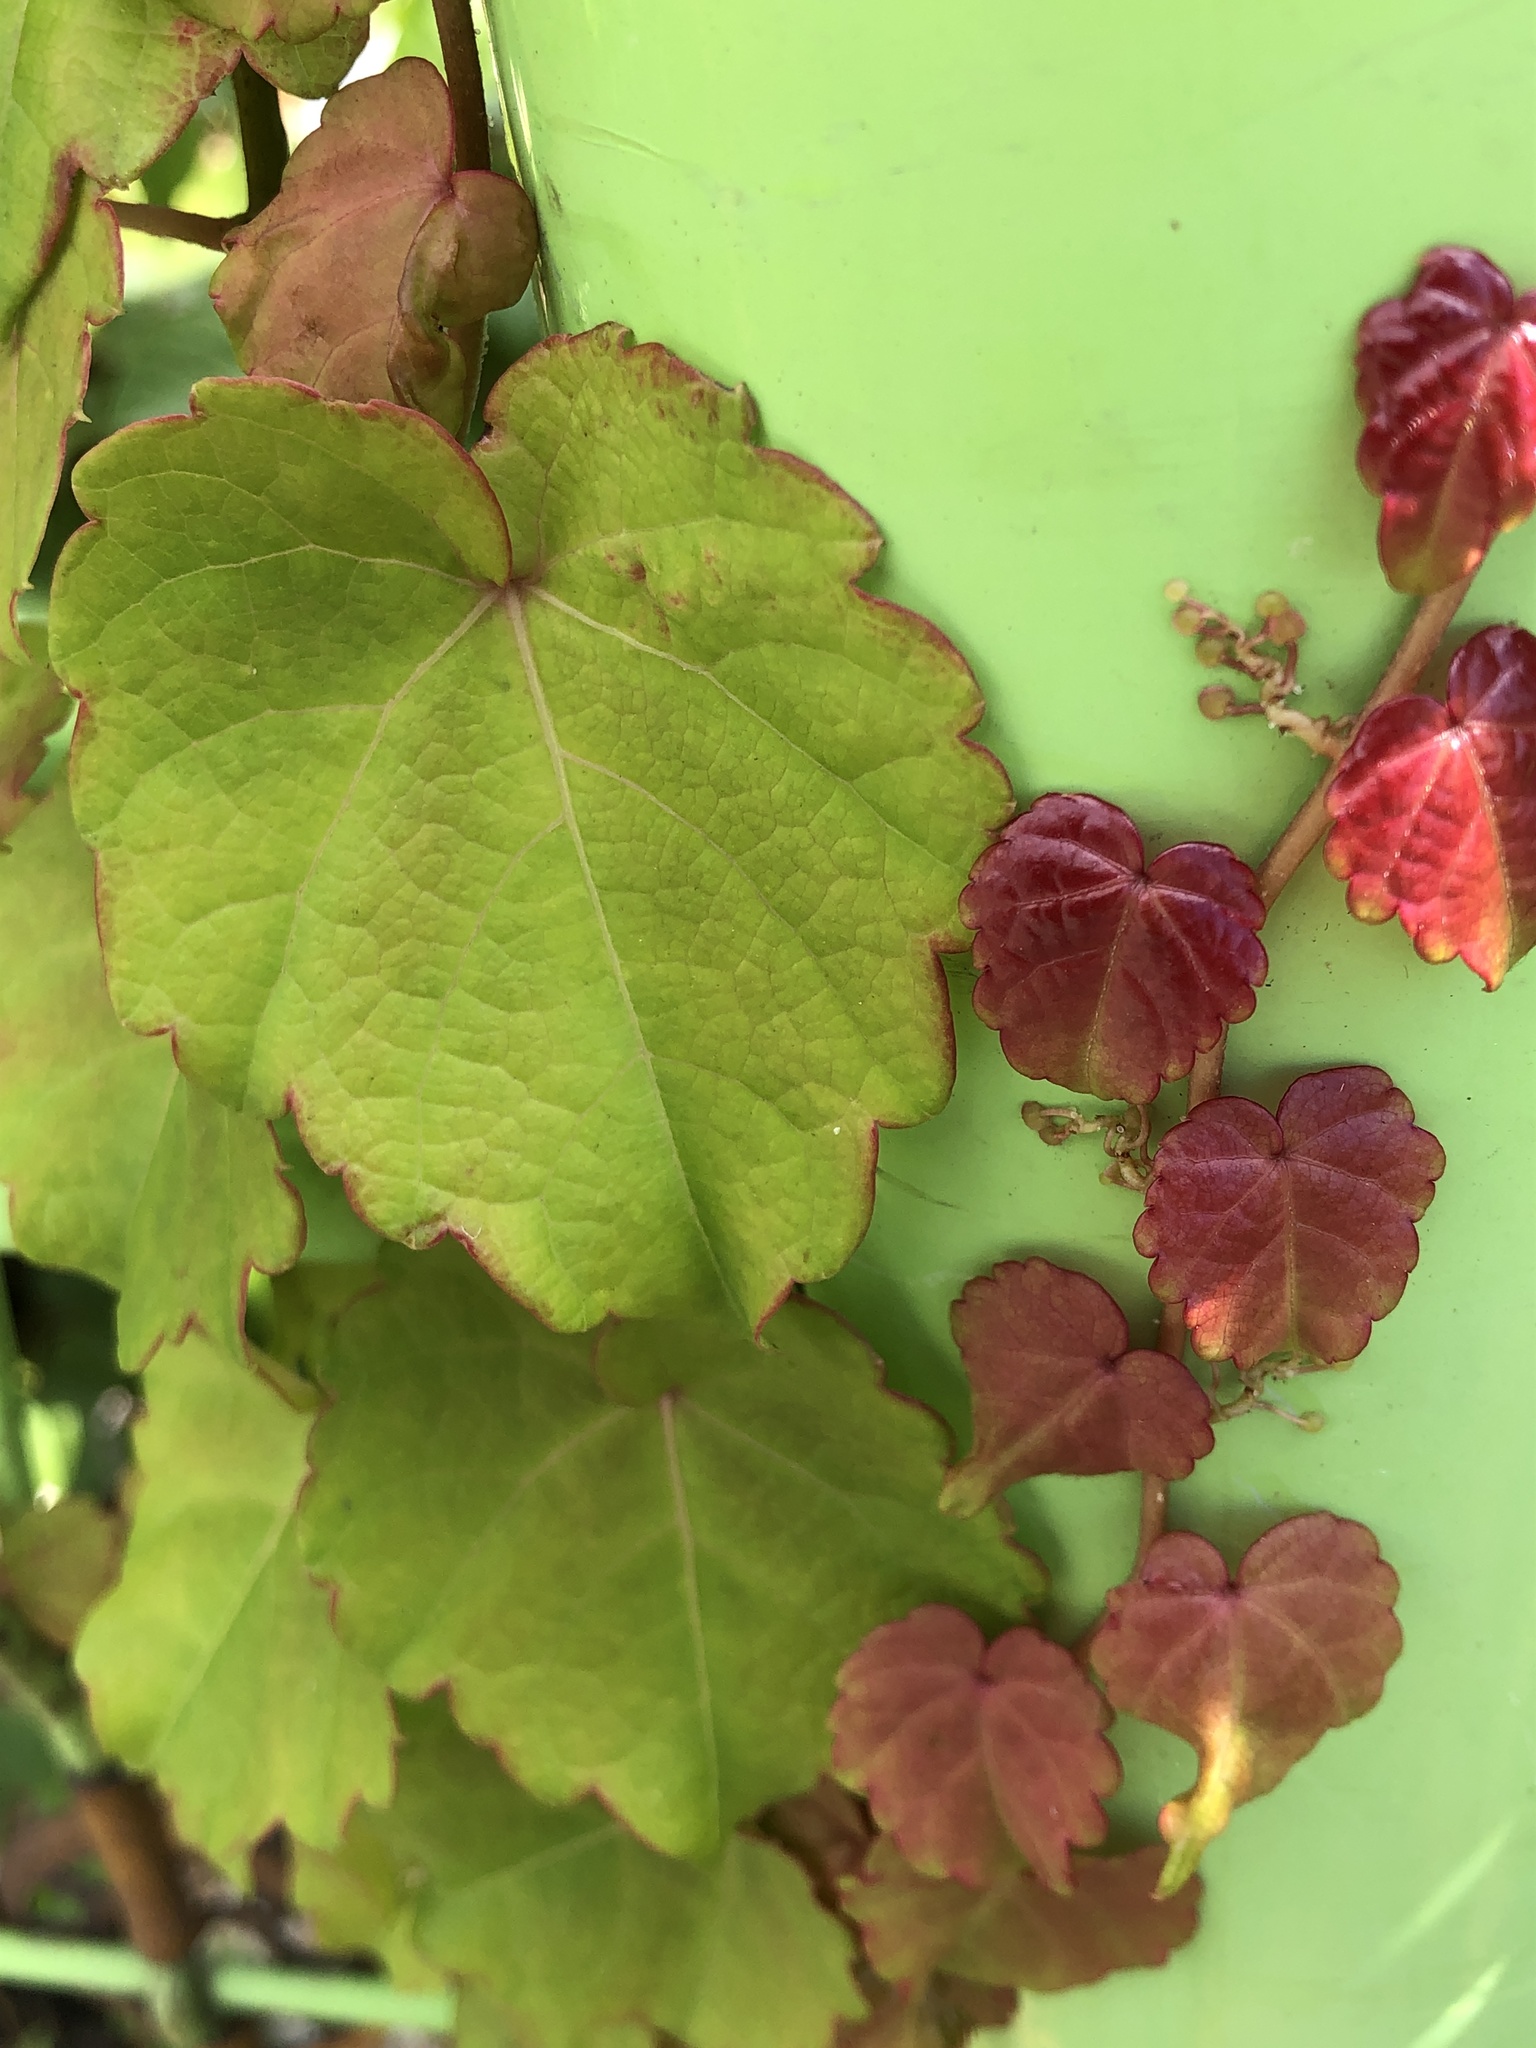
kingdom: Plantae
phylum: Tracheophyta
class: Magnoliopsida
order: Vitales
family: Vitaceae
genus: Parthenocissus
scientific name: Parthenocissus tricuspidata
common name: Boston ivy
